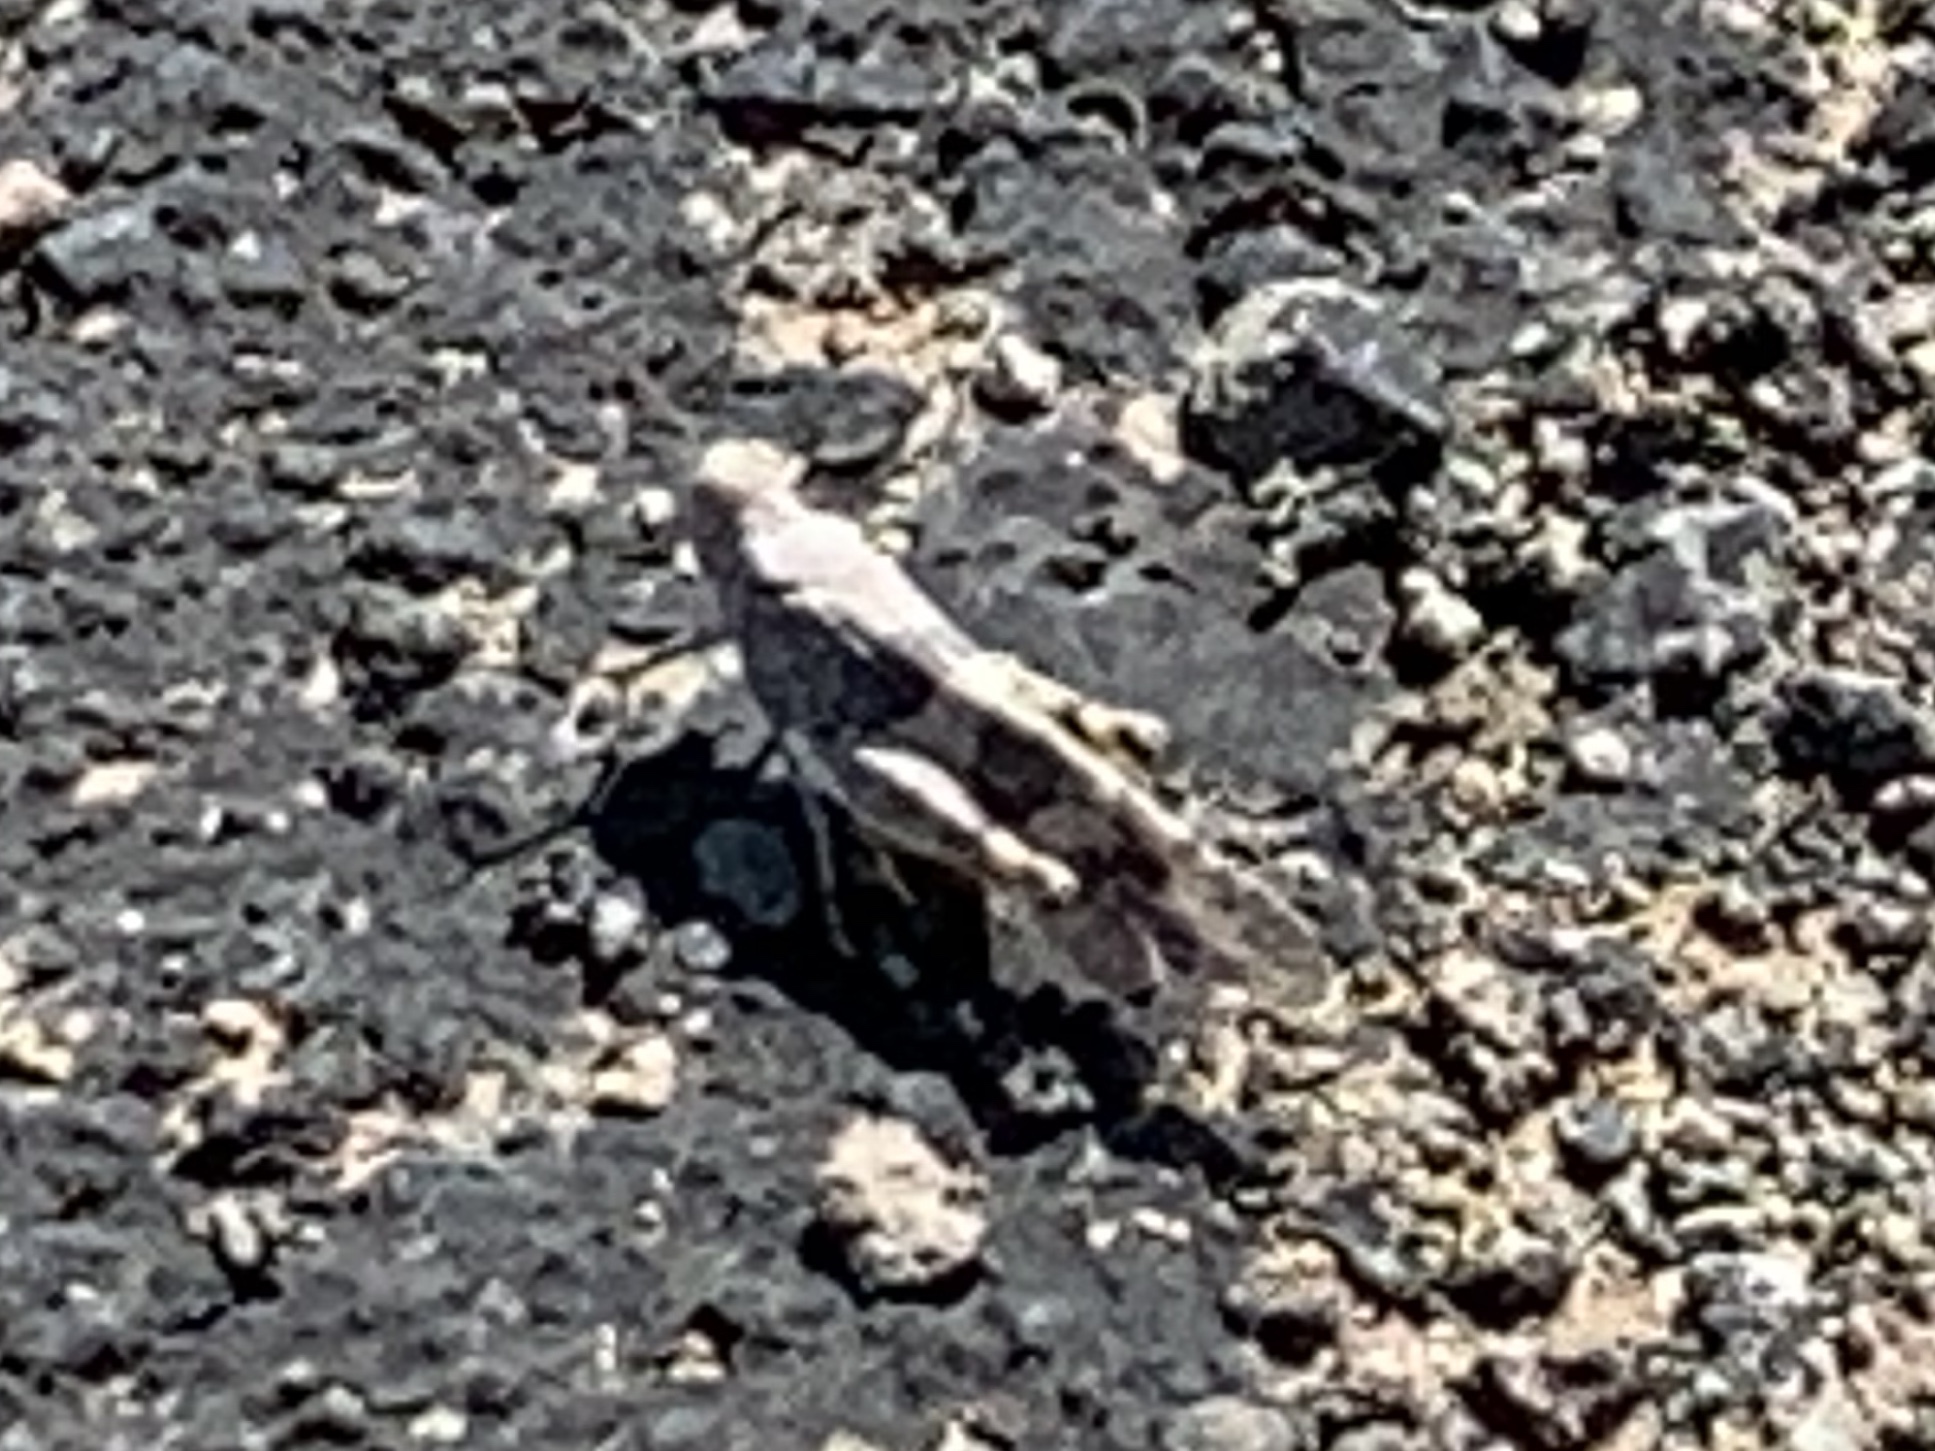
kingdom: Animalia
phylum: Arthropoda
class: Insecta
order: Orthoptera
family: Acrididae
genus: Trimerotropis
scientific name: Trimerotropis pallidipennis
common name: Pallid-winged grasshopper
